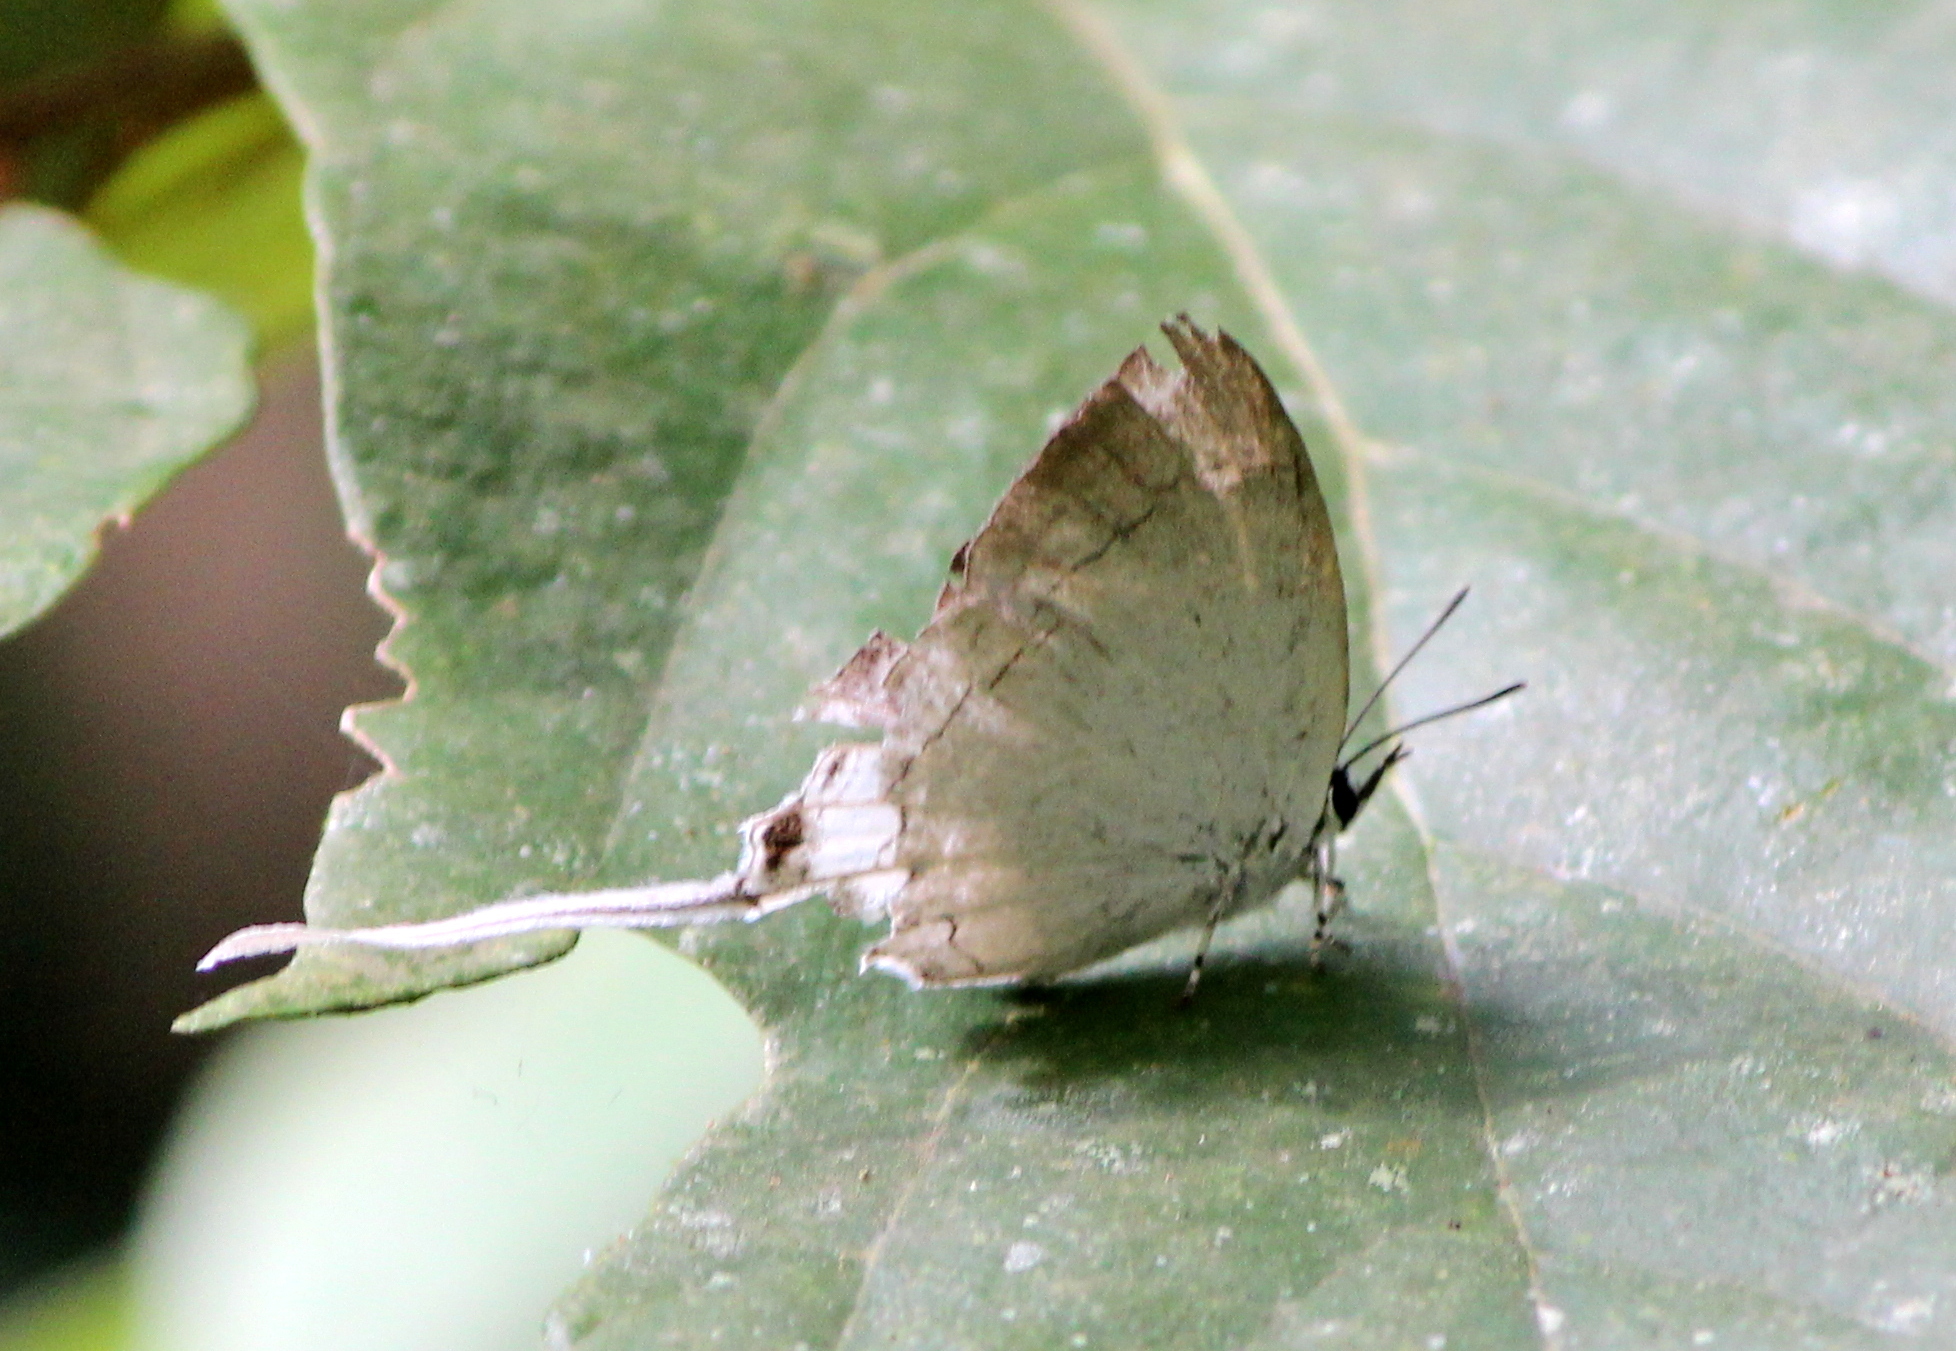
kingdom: Animalia
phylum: Arthropoda
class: Insecta
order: Lepidoptera
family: Lycaenidae
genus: Cheritra
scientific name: Cheritra freja
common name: Common imperial
